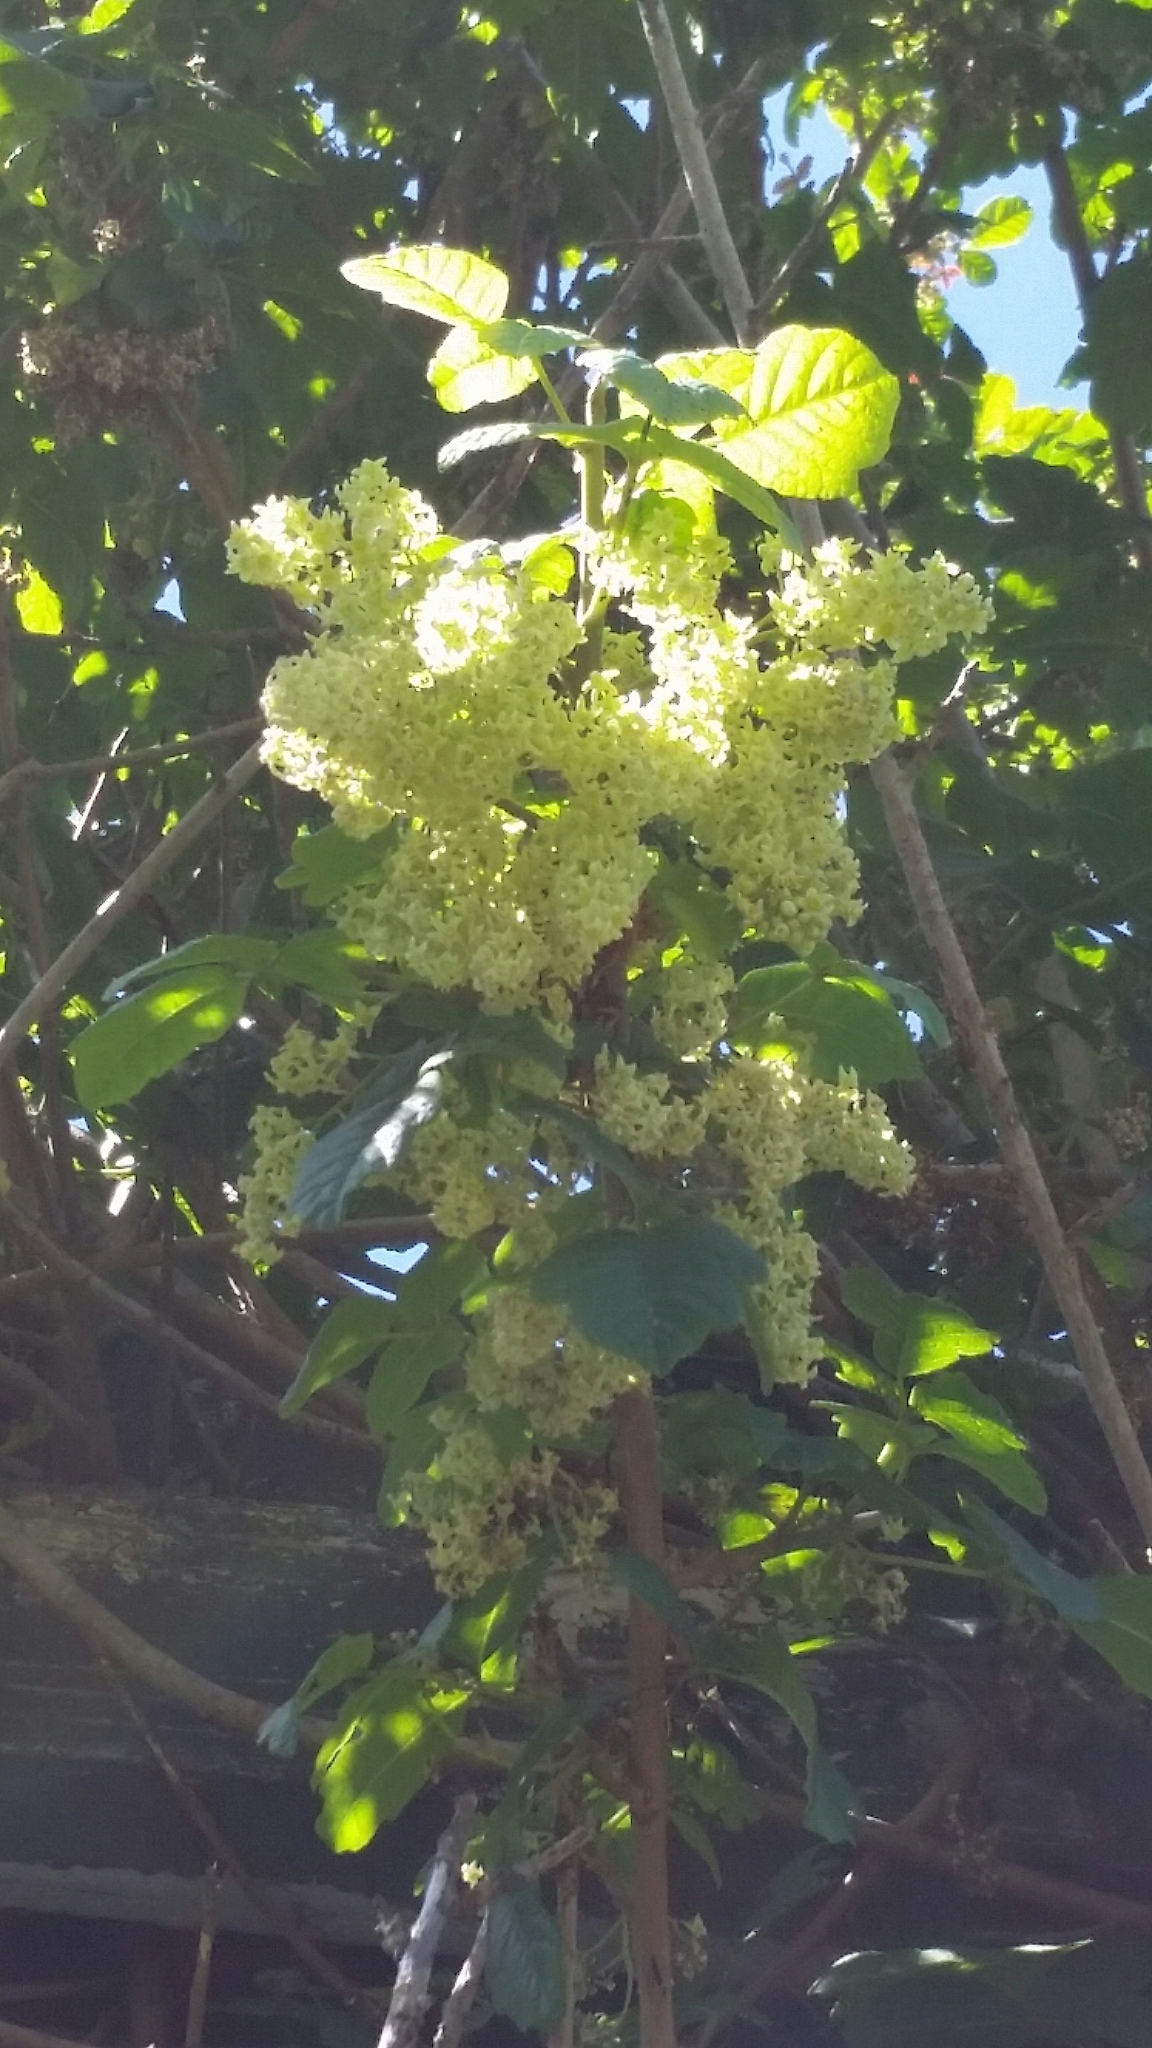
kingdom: Plantae
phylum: Tracheophyta
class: Magnoliopsida
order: Sapindales
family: Anacardiaceae
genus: Toxicodendron
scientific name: Toxicodendron diversilobum
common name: Pacific poison-oak
